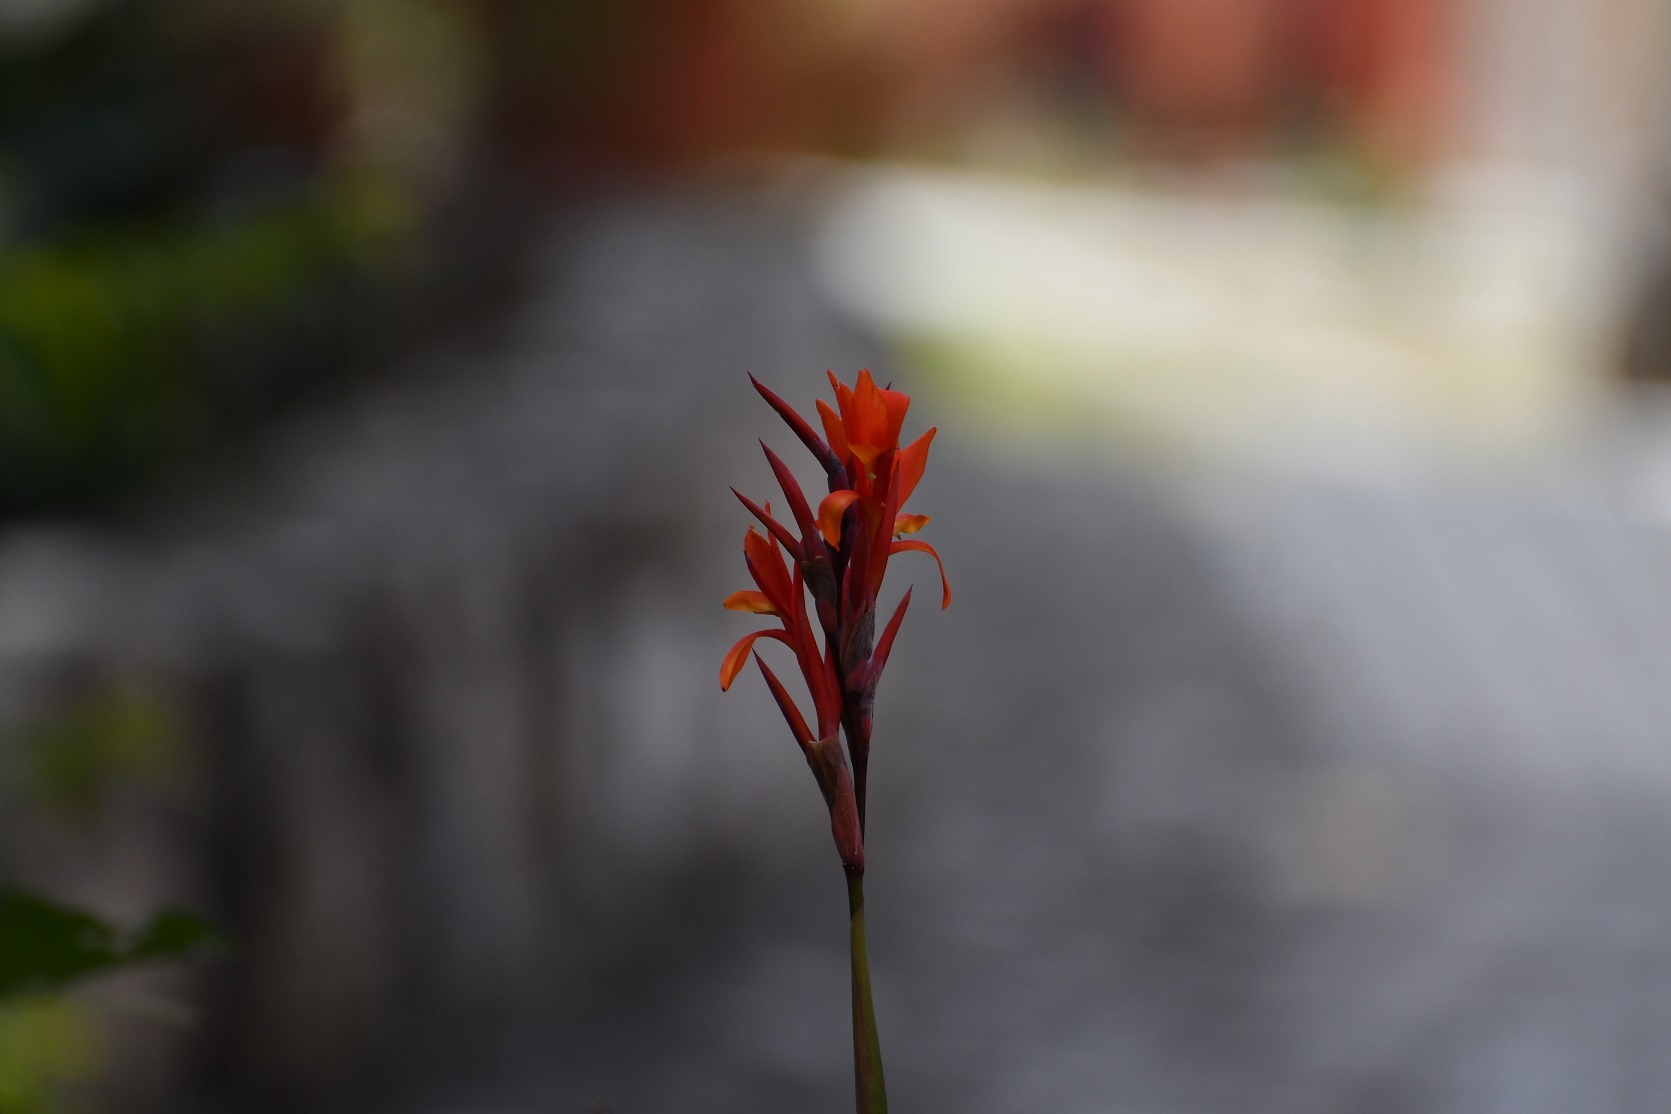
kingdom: Plantae
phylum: Tracheophyta
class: Liliopsida
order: Zingiberales
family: Cannaceae
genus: Canna
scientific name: Canna indica
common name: Indian shot
